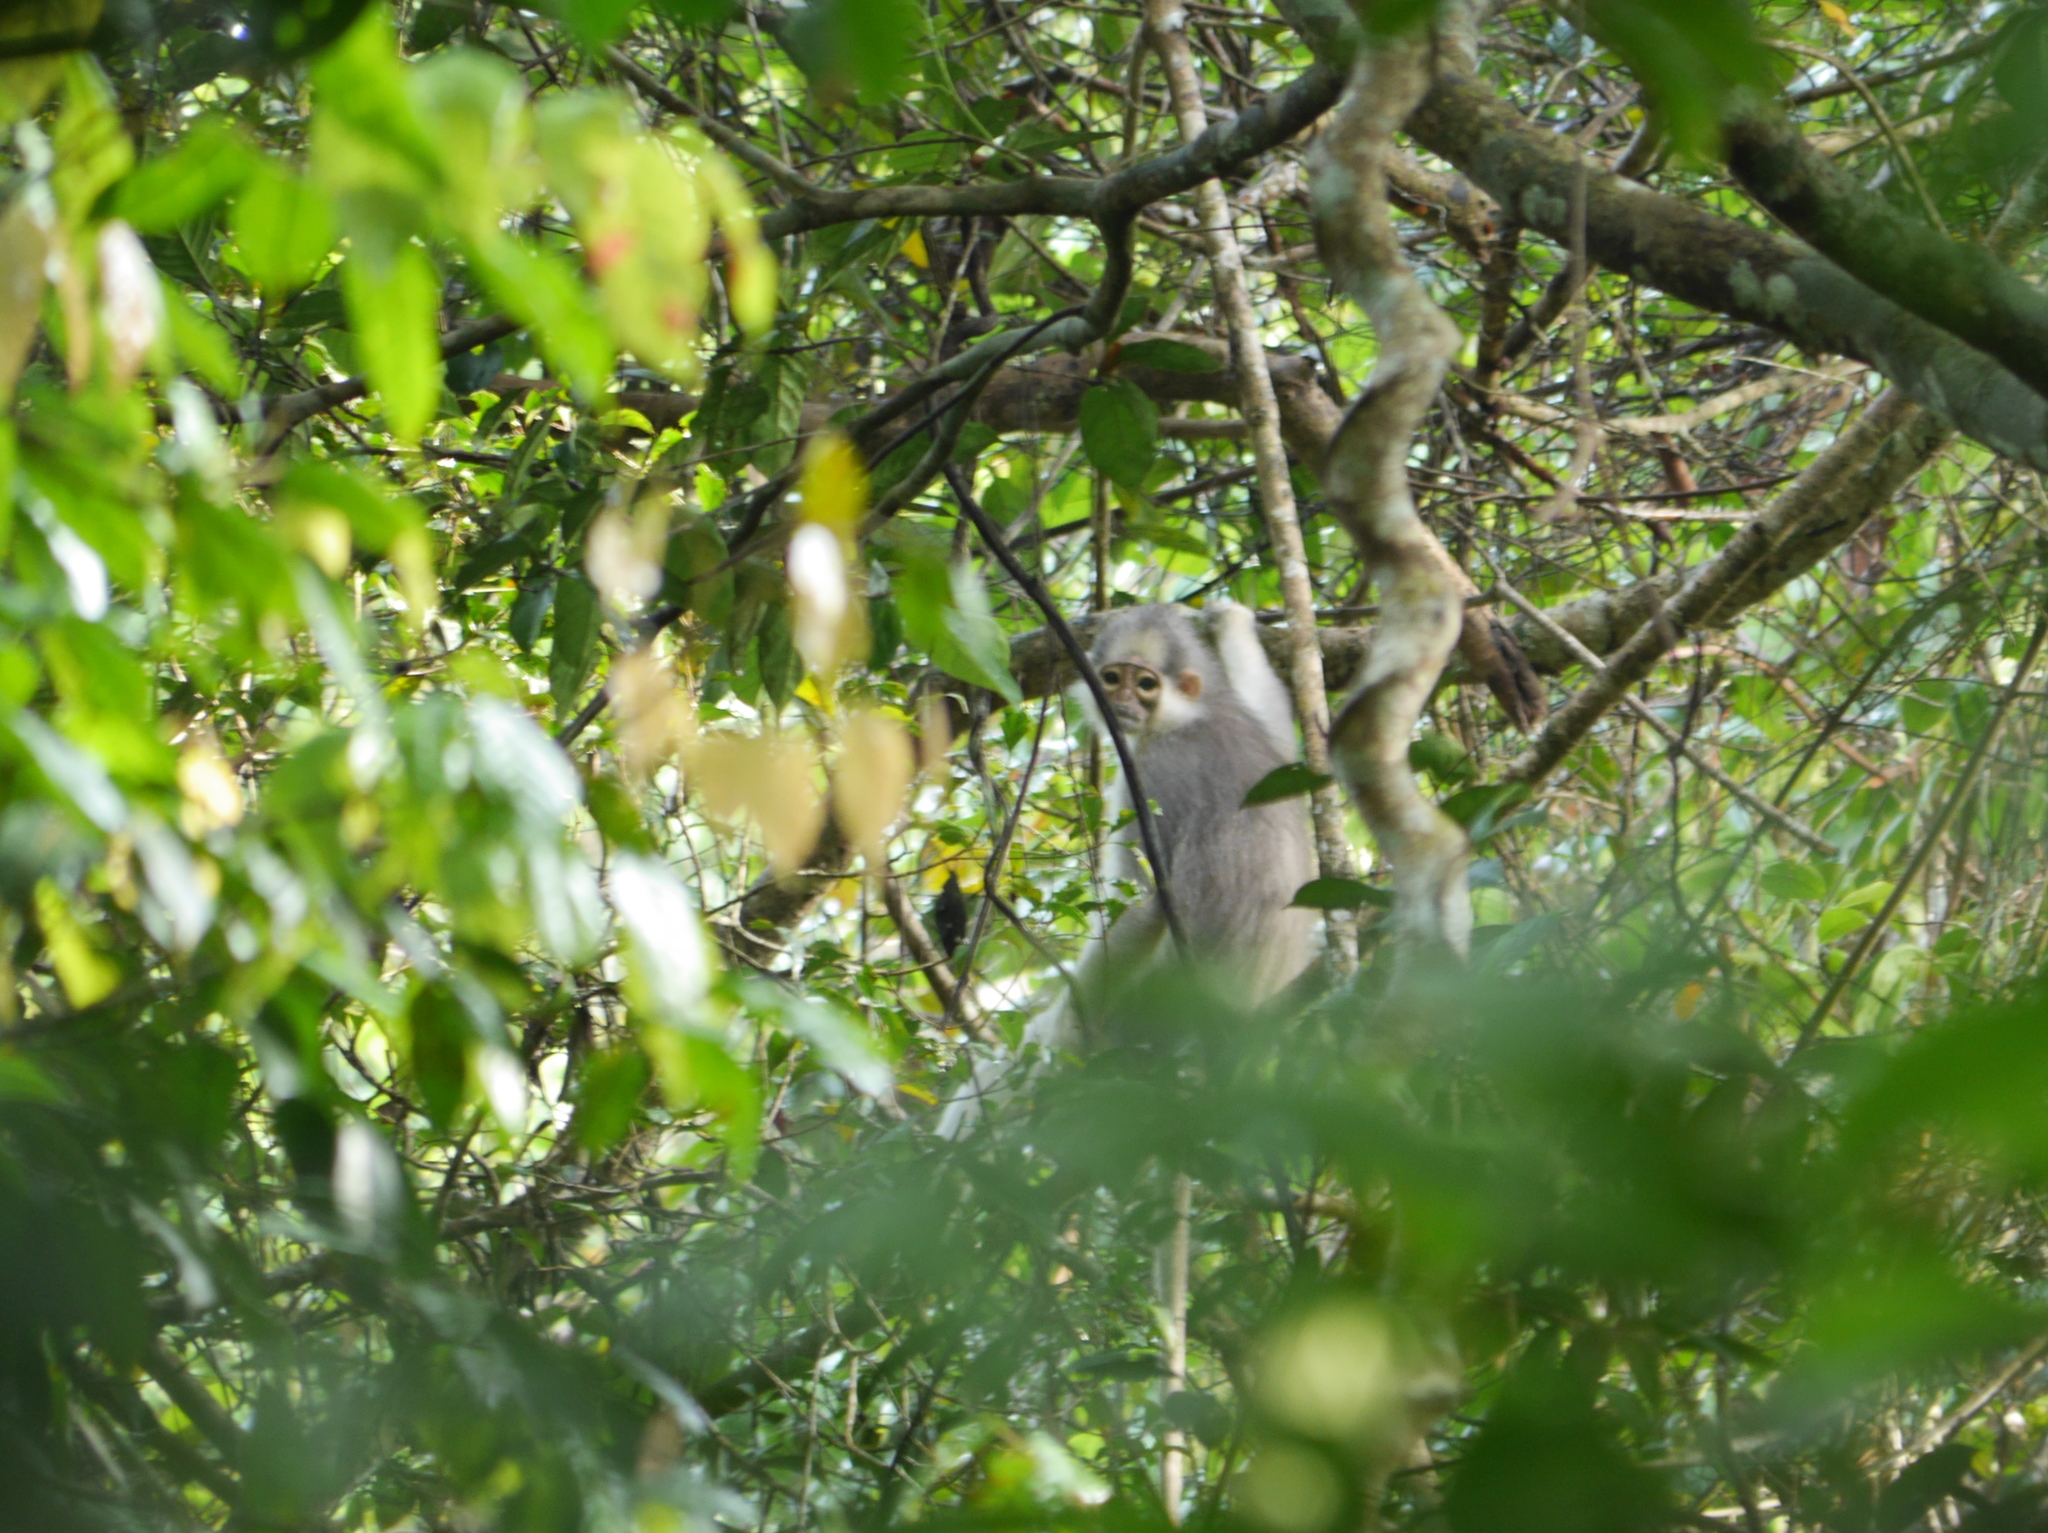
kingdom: Animalia
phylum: Chordata
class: Mammalia
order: Primates
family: Cercopithecidae
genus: Presbytis
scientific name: Presbytis mitrata
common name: Mitered langur
